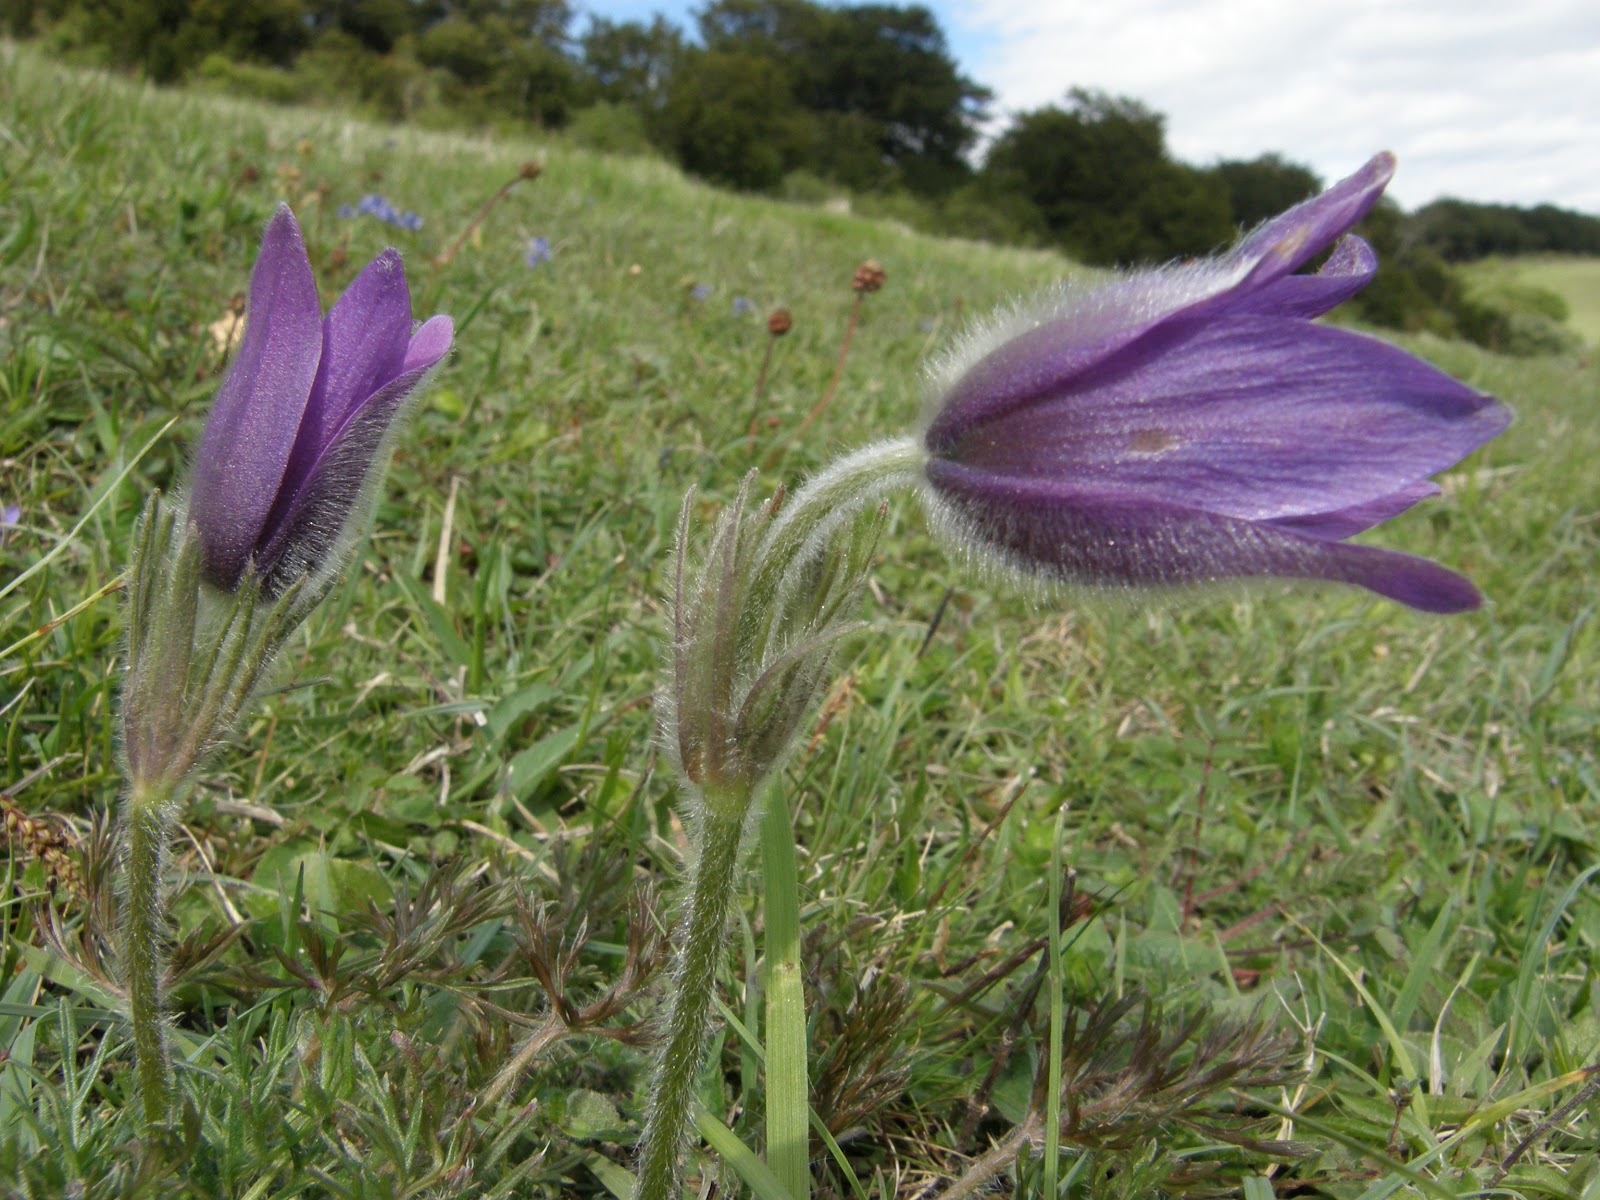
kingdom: Plantae
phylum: Tracheophyta
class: Magnoliopsida
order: Ranunculales
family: Ranunculaceae
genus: Pulsatilla
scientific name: Pulsatilla vulgaris
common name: Pasqueflower
